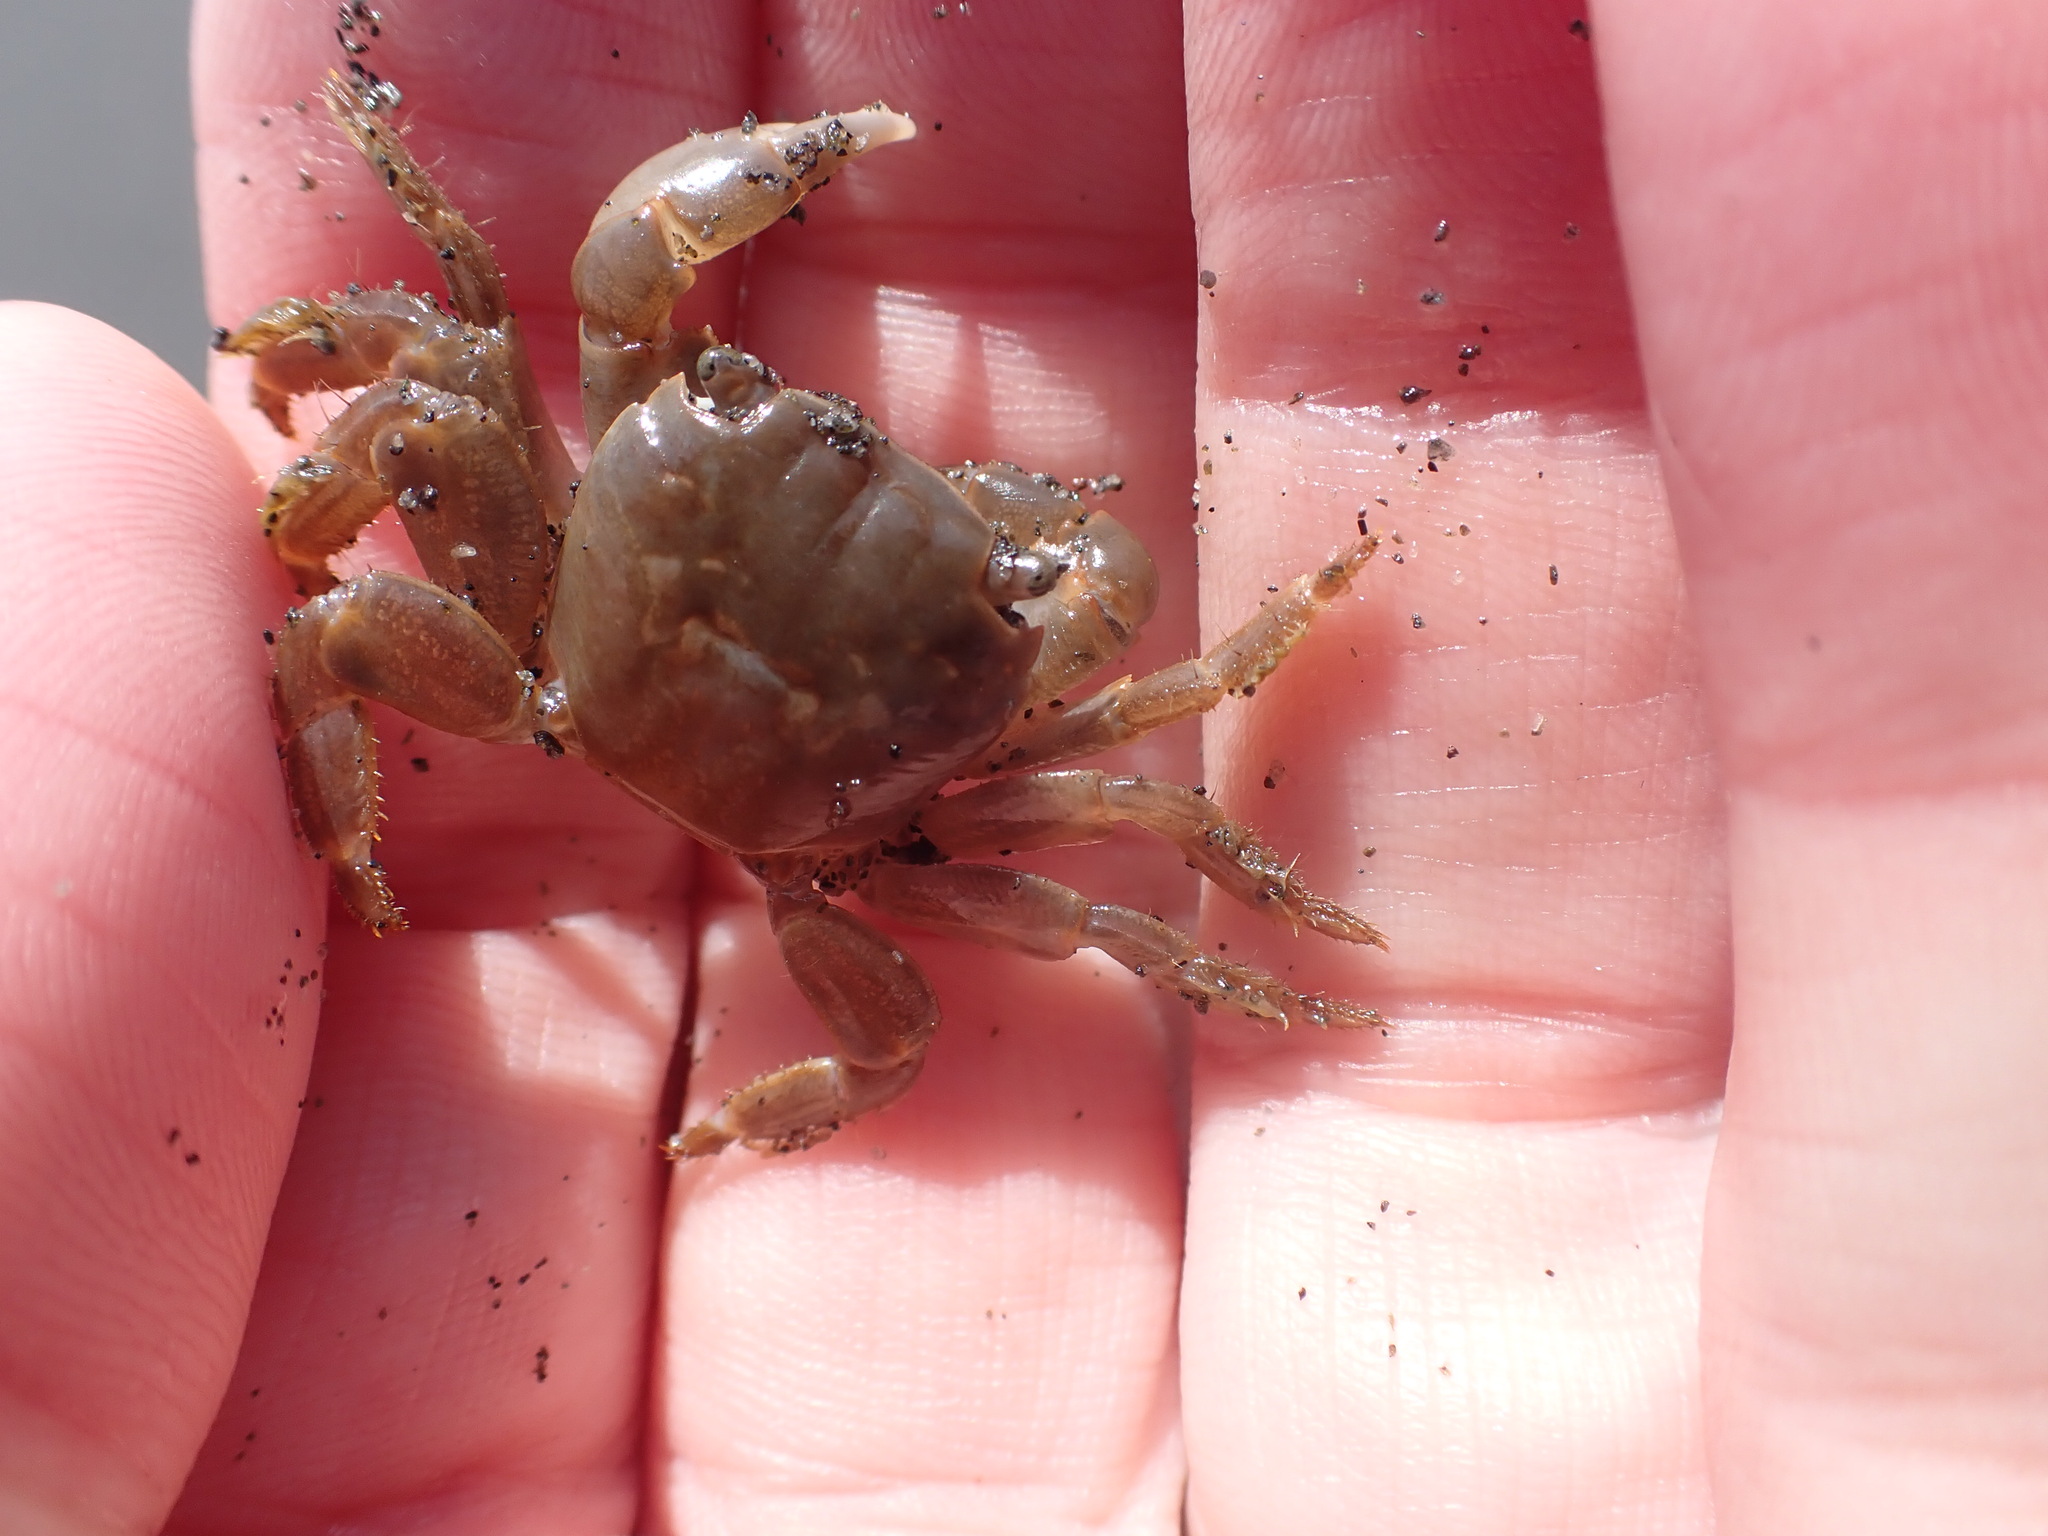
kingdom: Animalia
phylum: Arthropoda
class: Malacostraca
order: Decapoda
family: Grapsidae
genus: Planes
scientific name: Planes minutus
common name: Gulf weed crab
